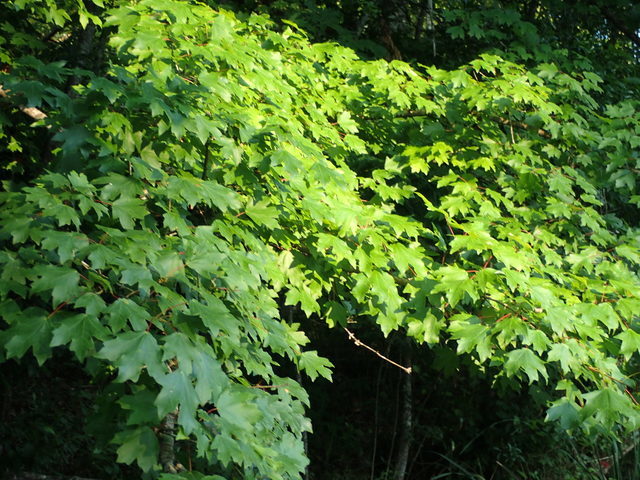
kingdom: Plantae
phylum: Tracheophyta
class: Magnoliopsida
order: Sapindales
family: Sapindaceae
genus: Acer
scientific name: Acer floridanum
